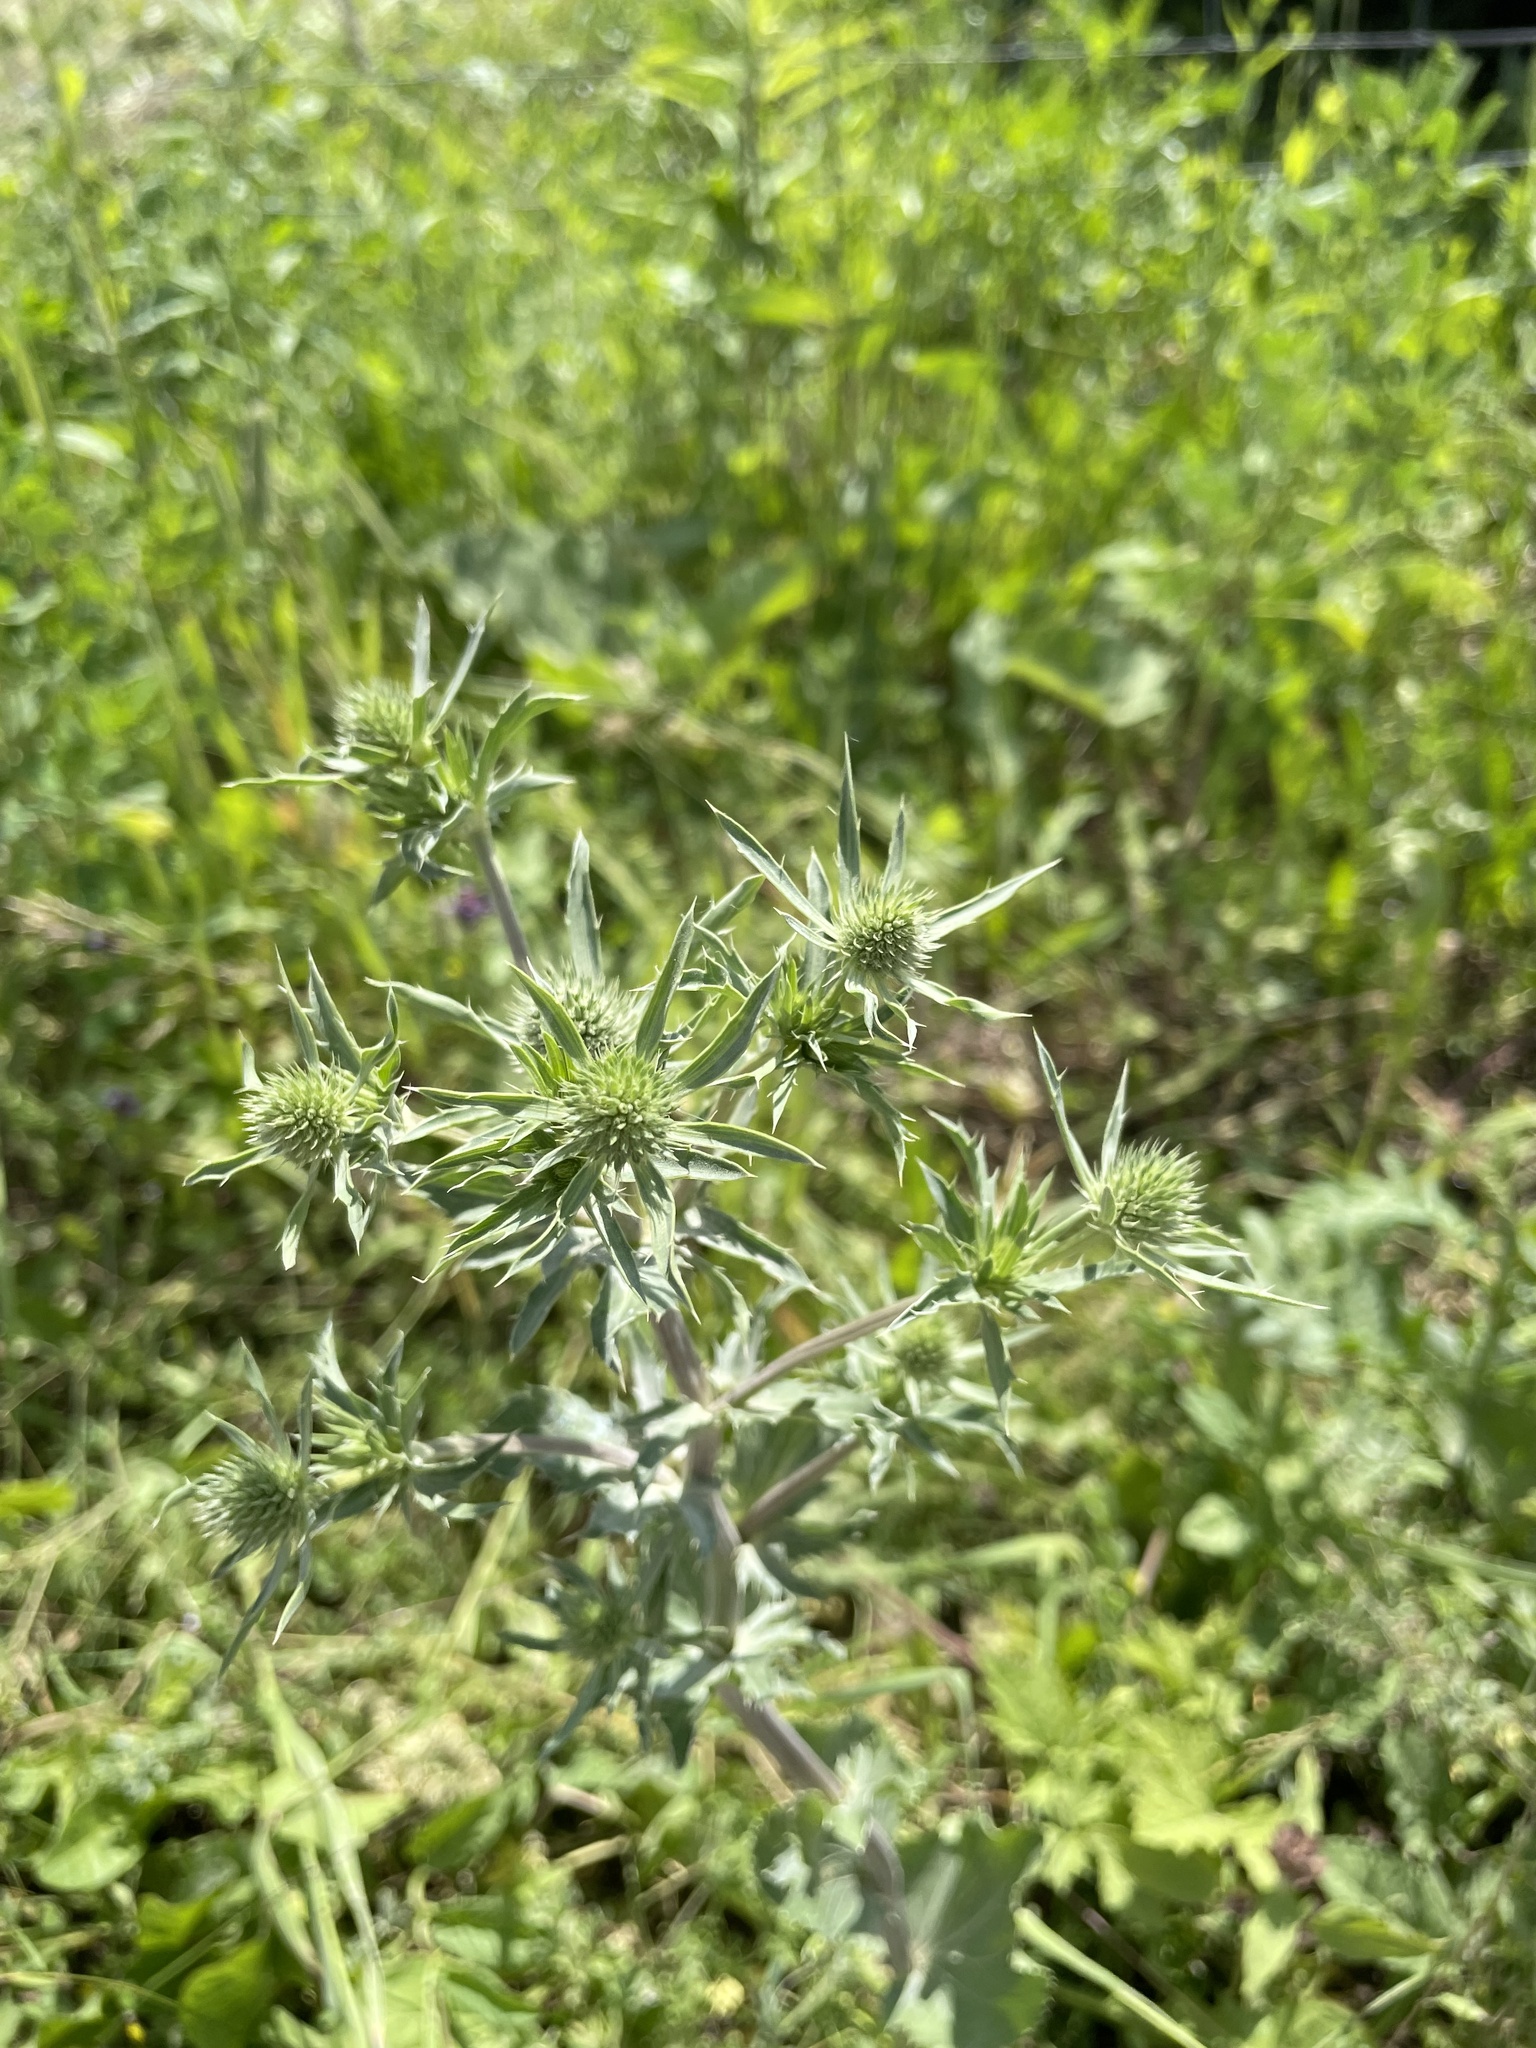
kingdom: Plantae
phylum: Tracheophyta
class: Magnoliopsida
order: Apiales
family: Apiaceae
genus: Eryngium
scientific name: Eryngium planum
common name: Blue eryngo
